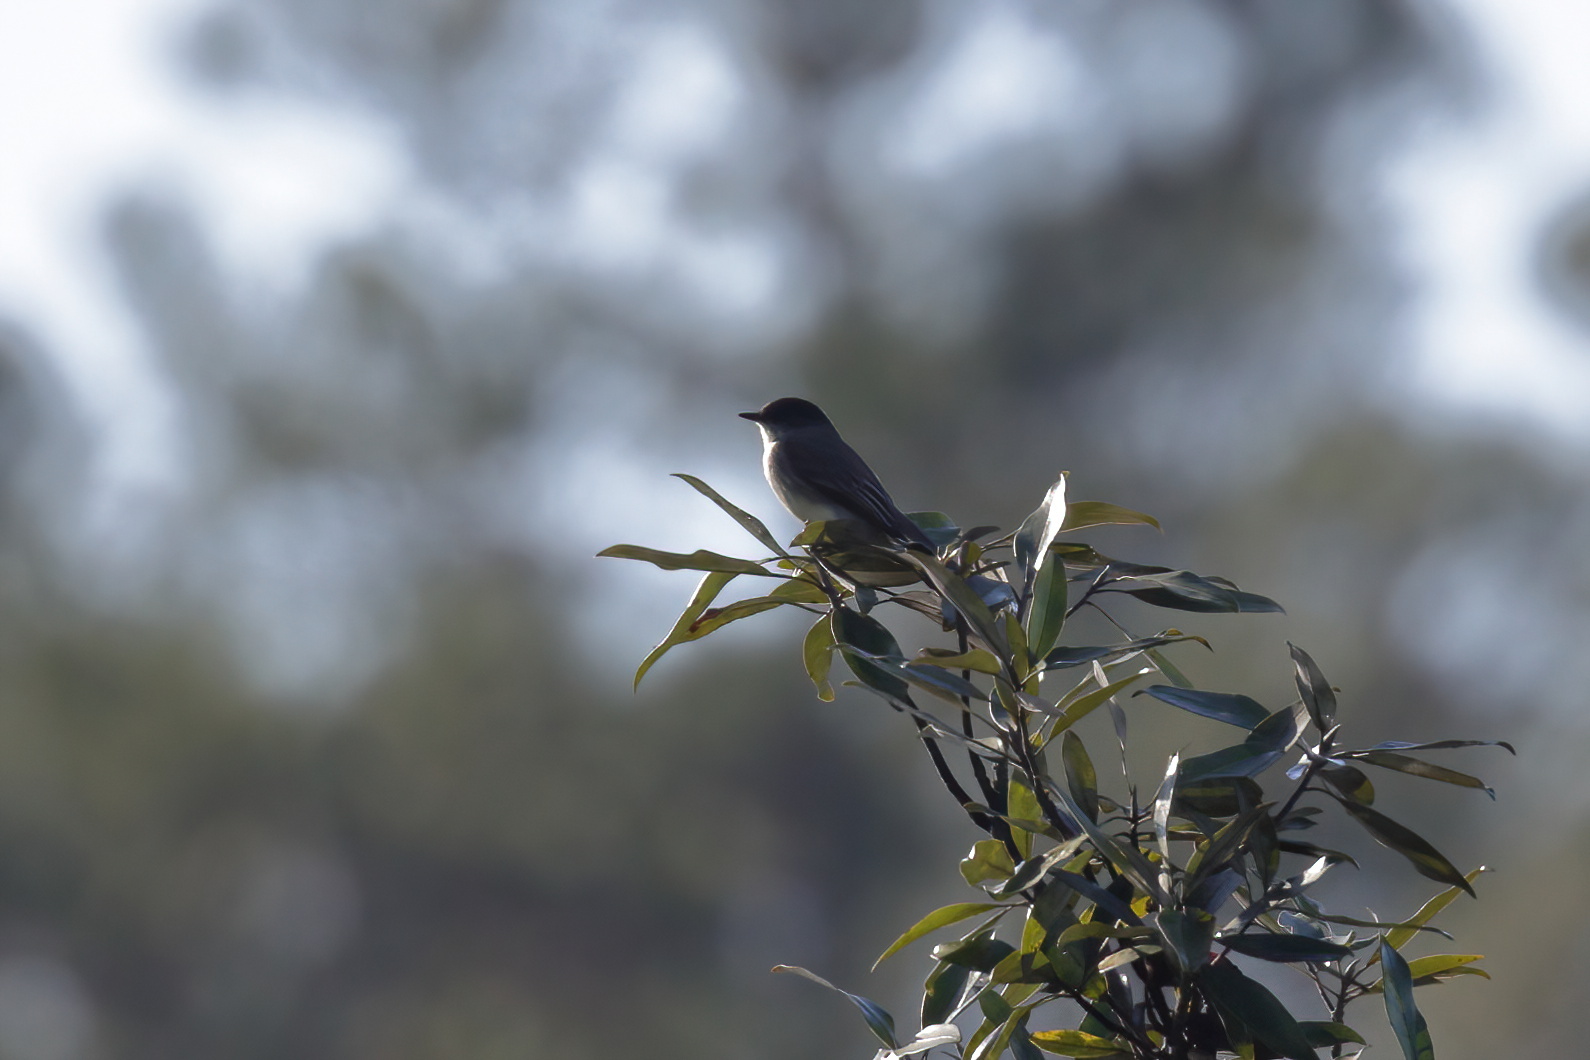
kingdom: Animalia
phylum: Chordata
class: Aves
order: Passeriformes
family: Tyrannidae
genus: Sayornis
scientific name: Sayornis phoebe
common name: Eastern phoebe
